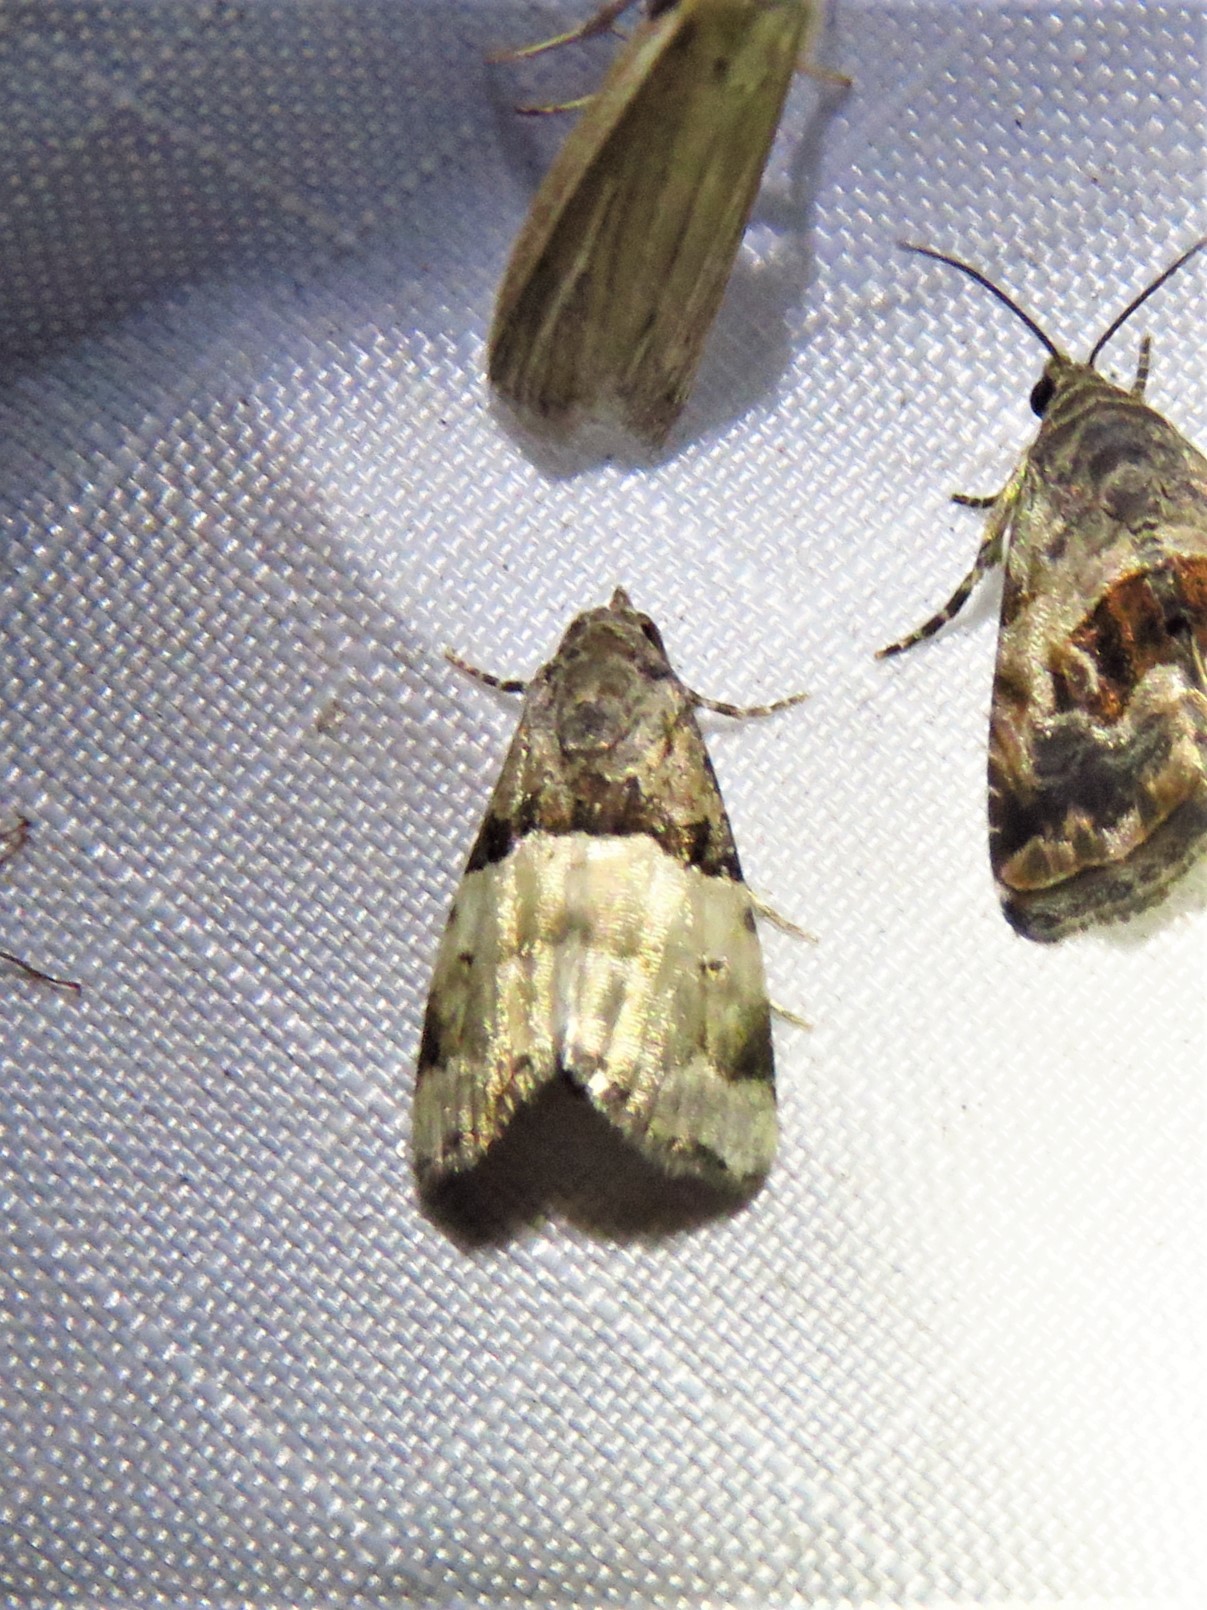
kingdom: Animalia
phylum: Arthropoda
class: Insecta
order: Lepidoptera
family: Noctuidae
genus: Cobubatha
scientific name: Cobubatha dividua
